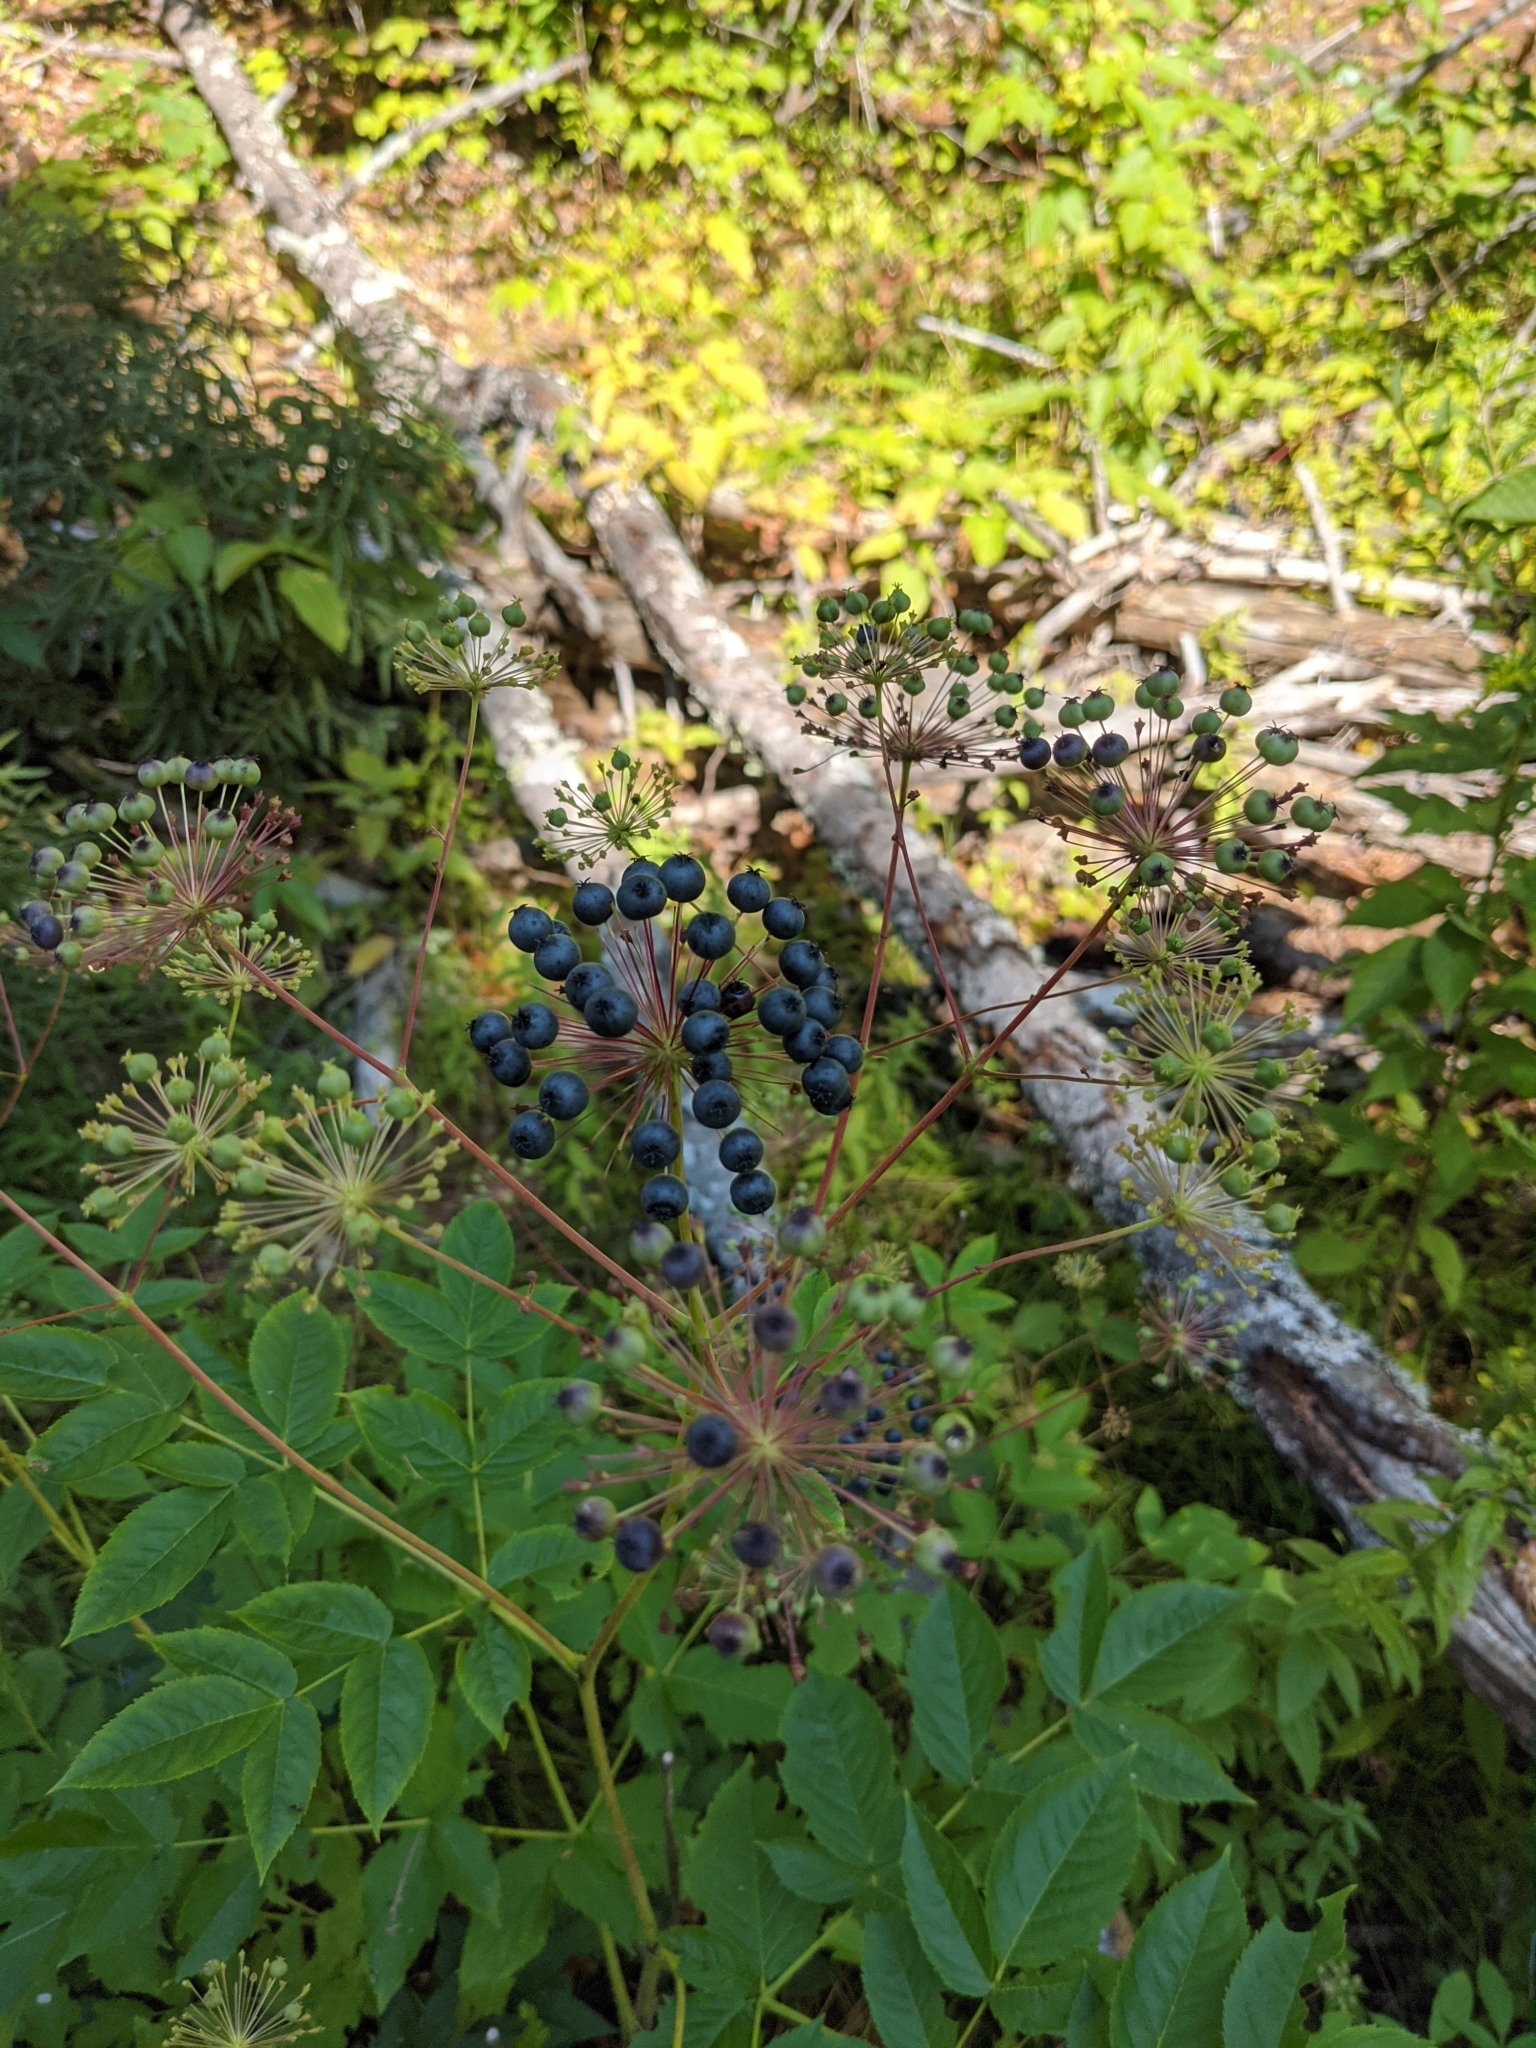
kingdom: Plantae
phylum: Tracheophyta
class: Magnoliopsida
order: Apiales
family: Araliaceae
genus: Aralia
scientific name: Aralia hispida
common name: Bristly sarsaparilla
